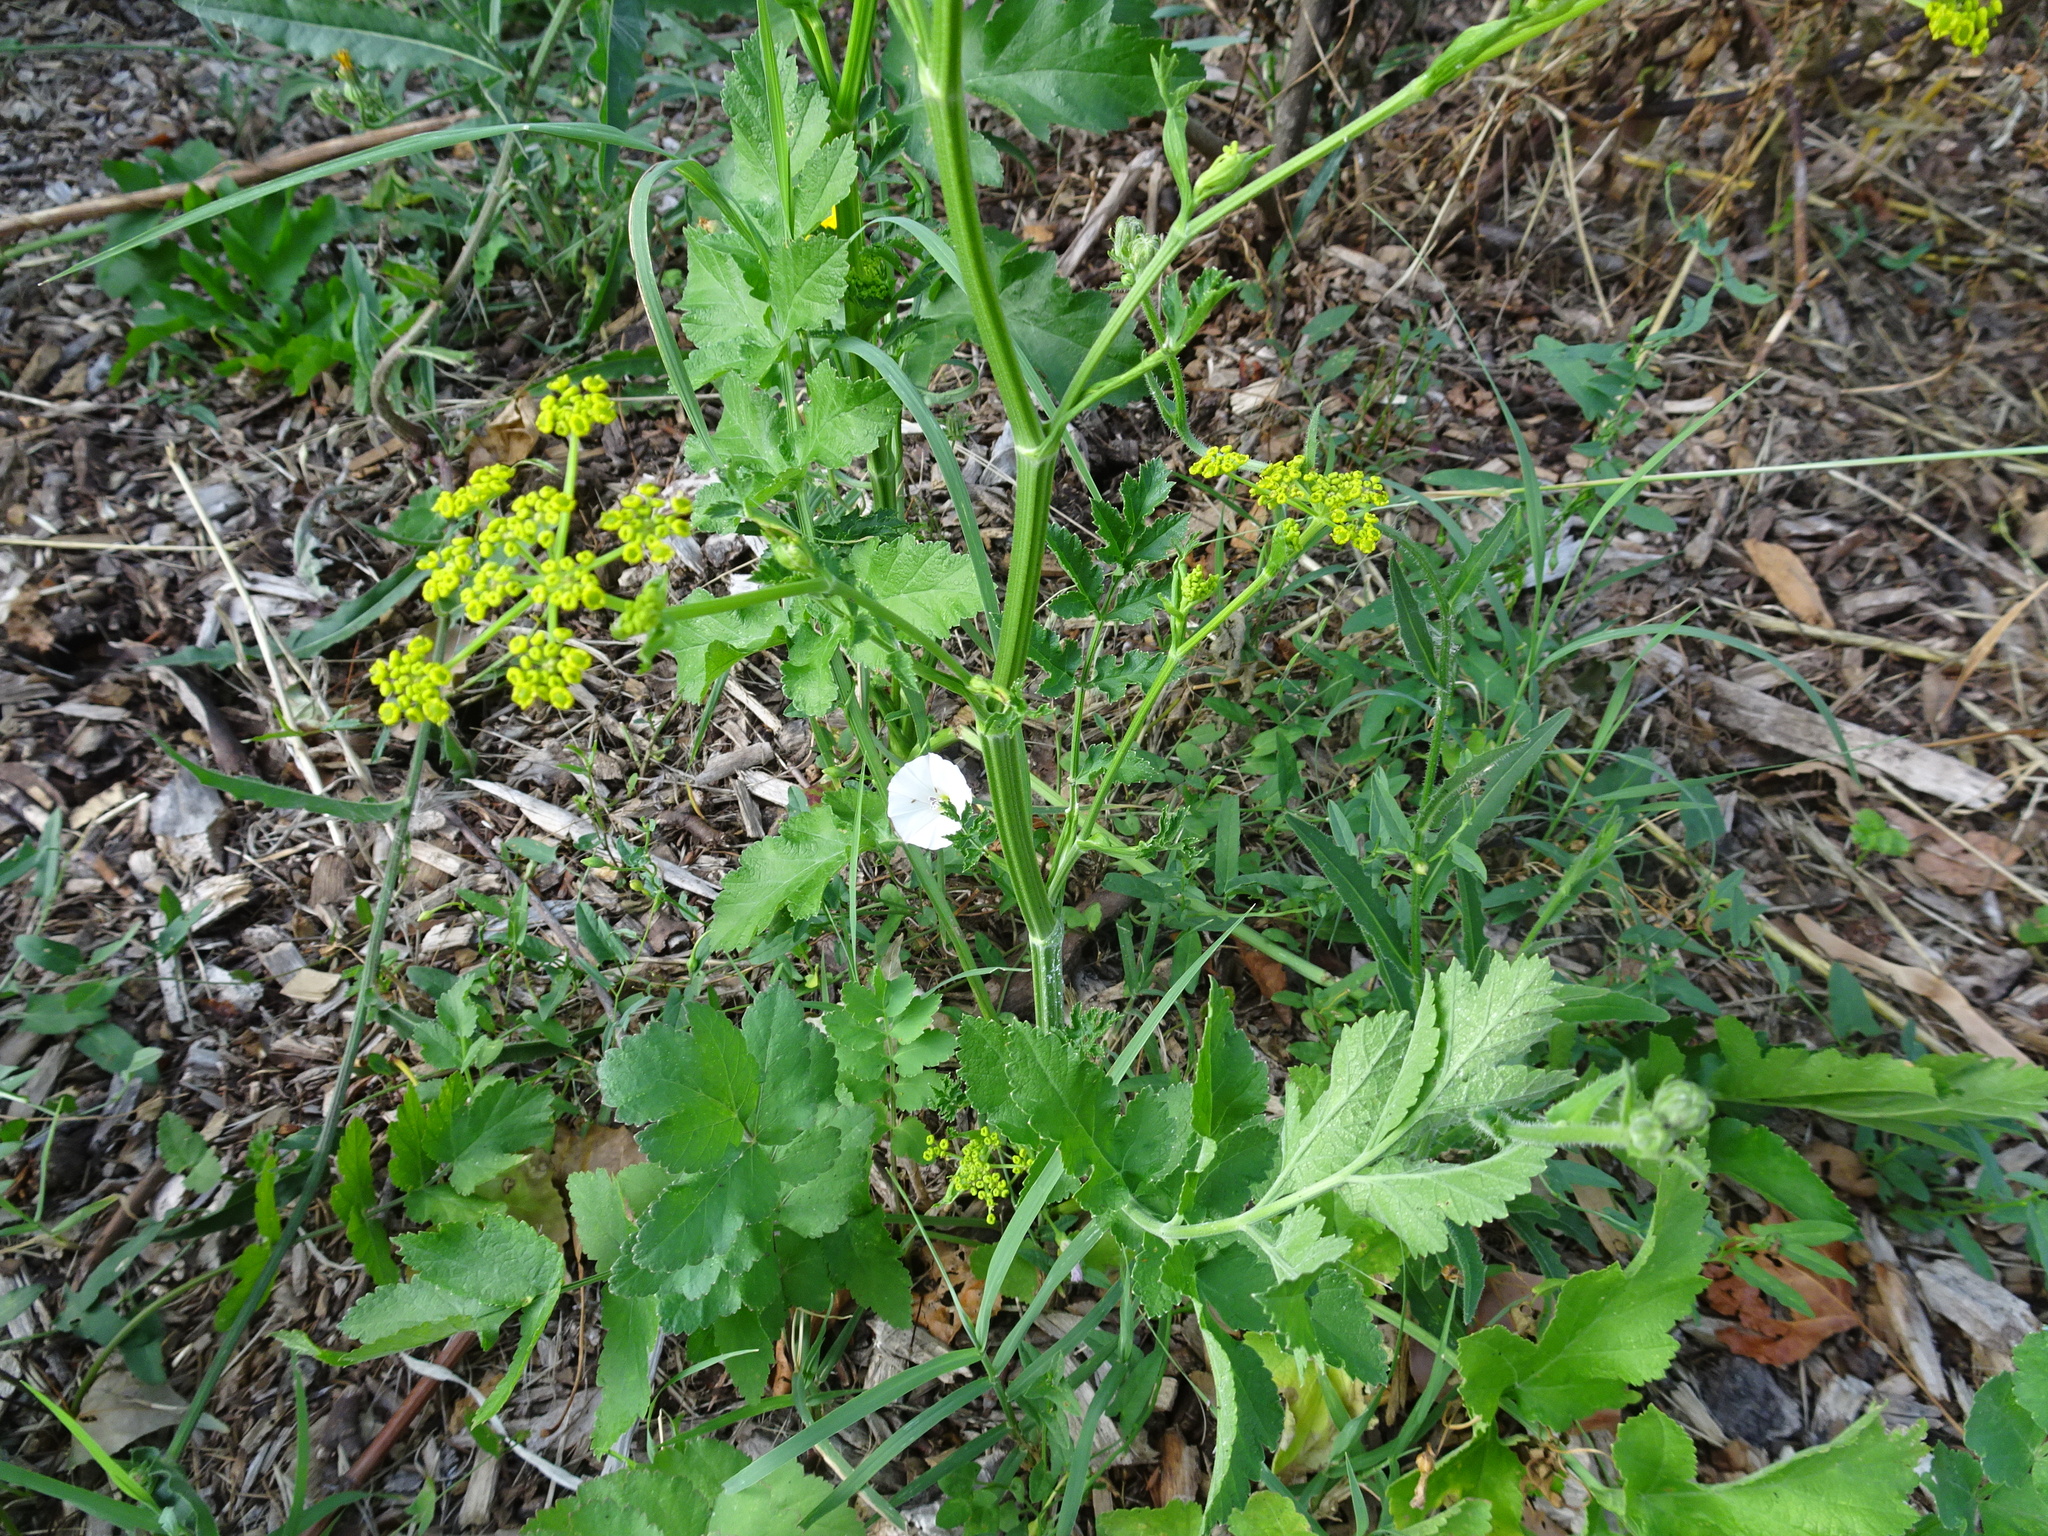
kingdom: Plantae
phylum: Tracheophyta
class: Magnoliopsida
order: Apiales
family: Apiaceae
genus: Pastinaca
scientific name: Pastinaca sativa
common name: Wild parsnip
